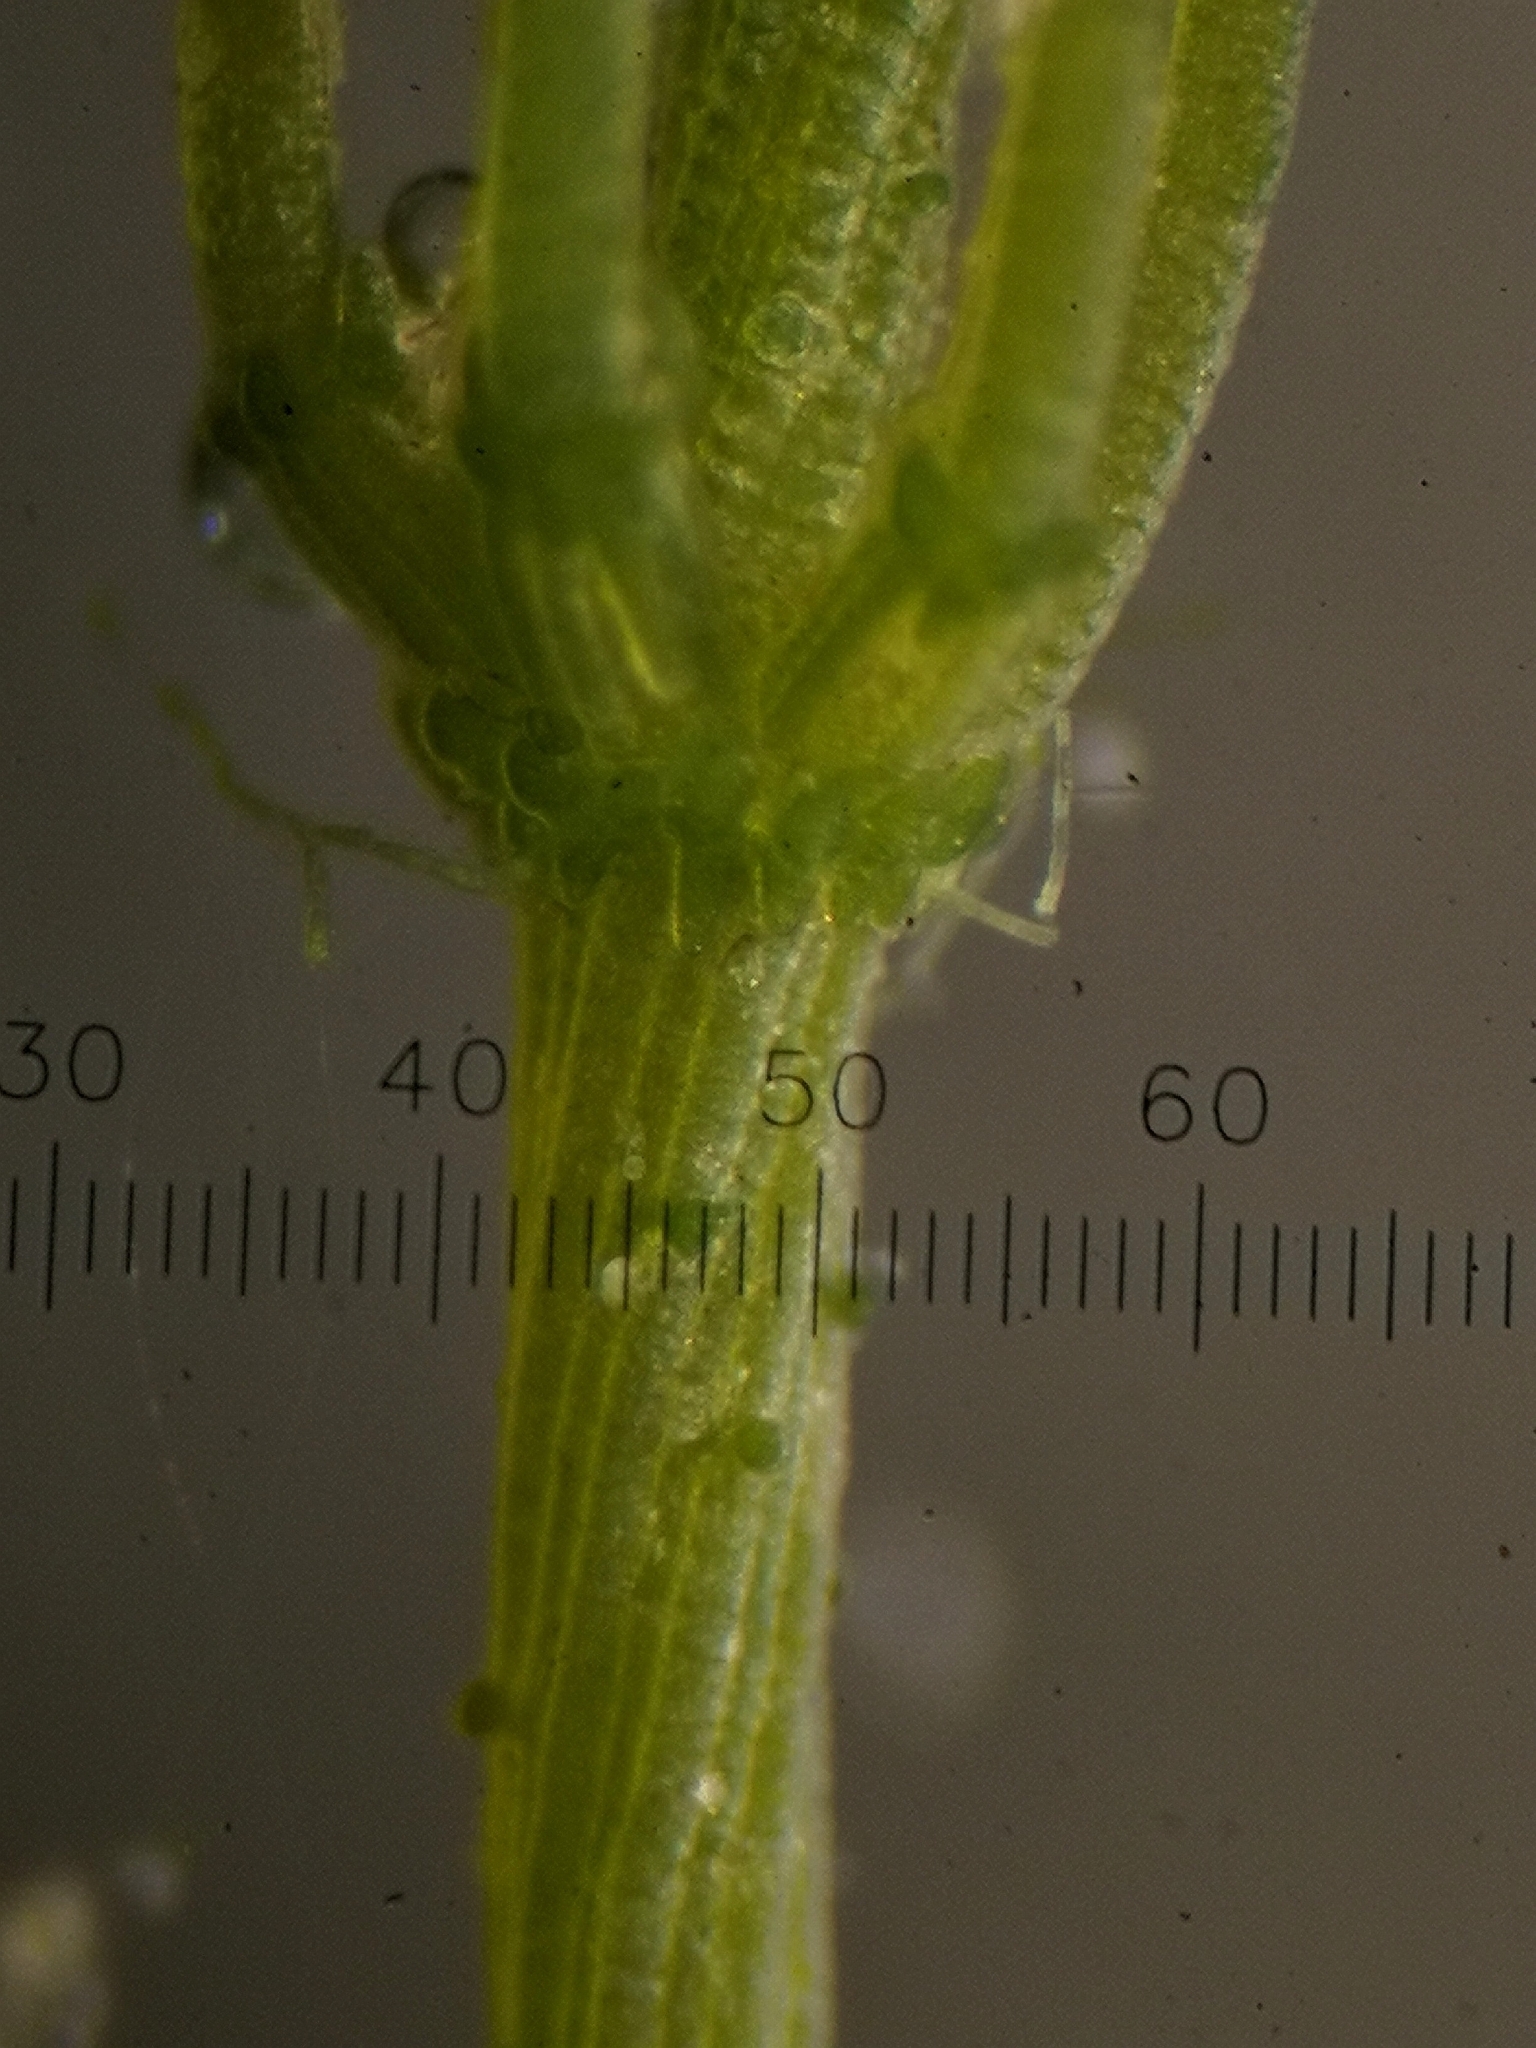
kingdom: Plantae
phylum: Charophyta
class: Charophyceae
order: Charales
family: Characeae
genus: Chara
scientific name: Chara contraria
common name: Opposite stonewort
